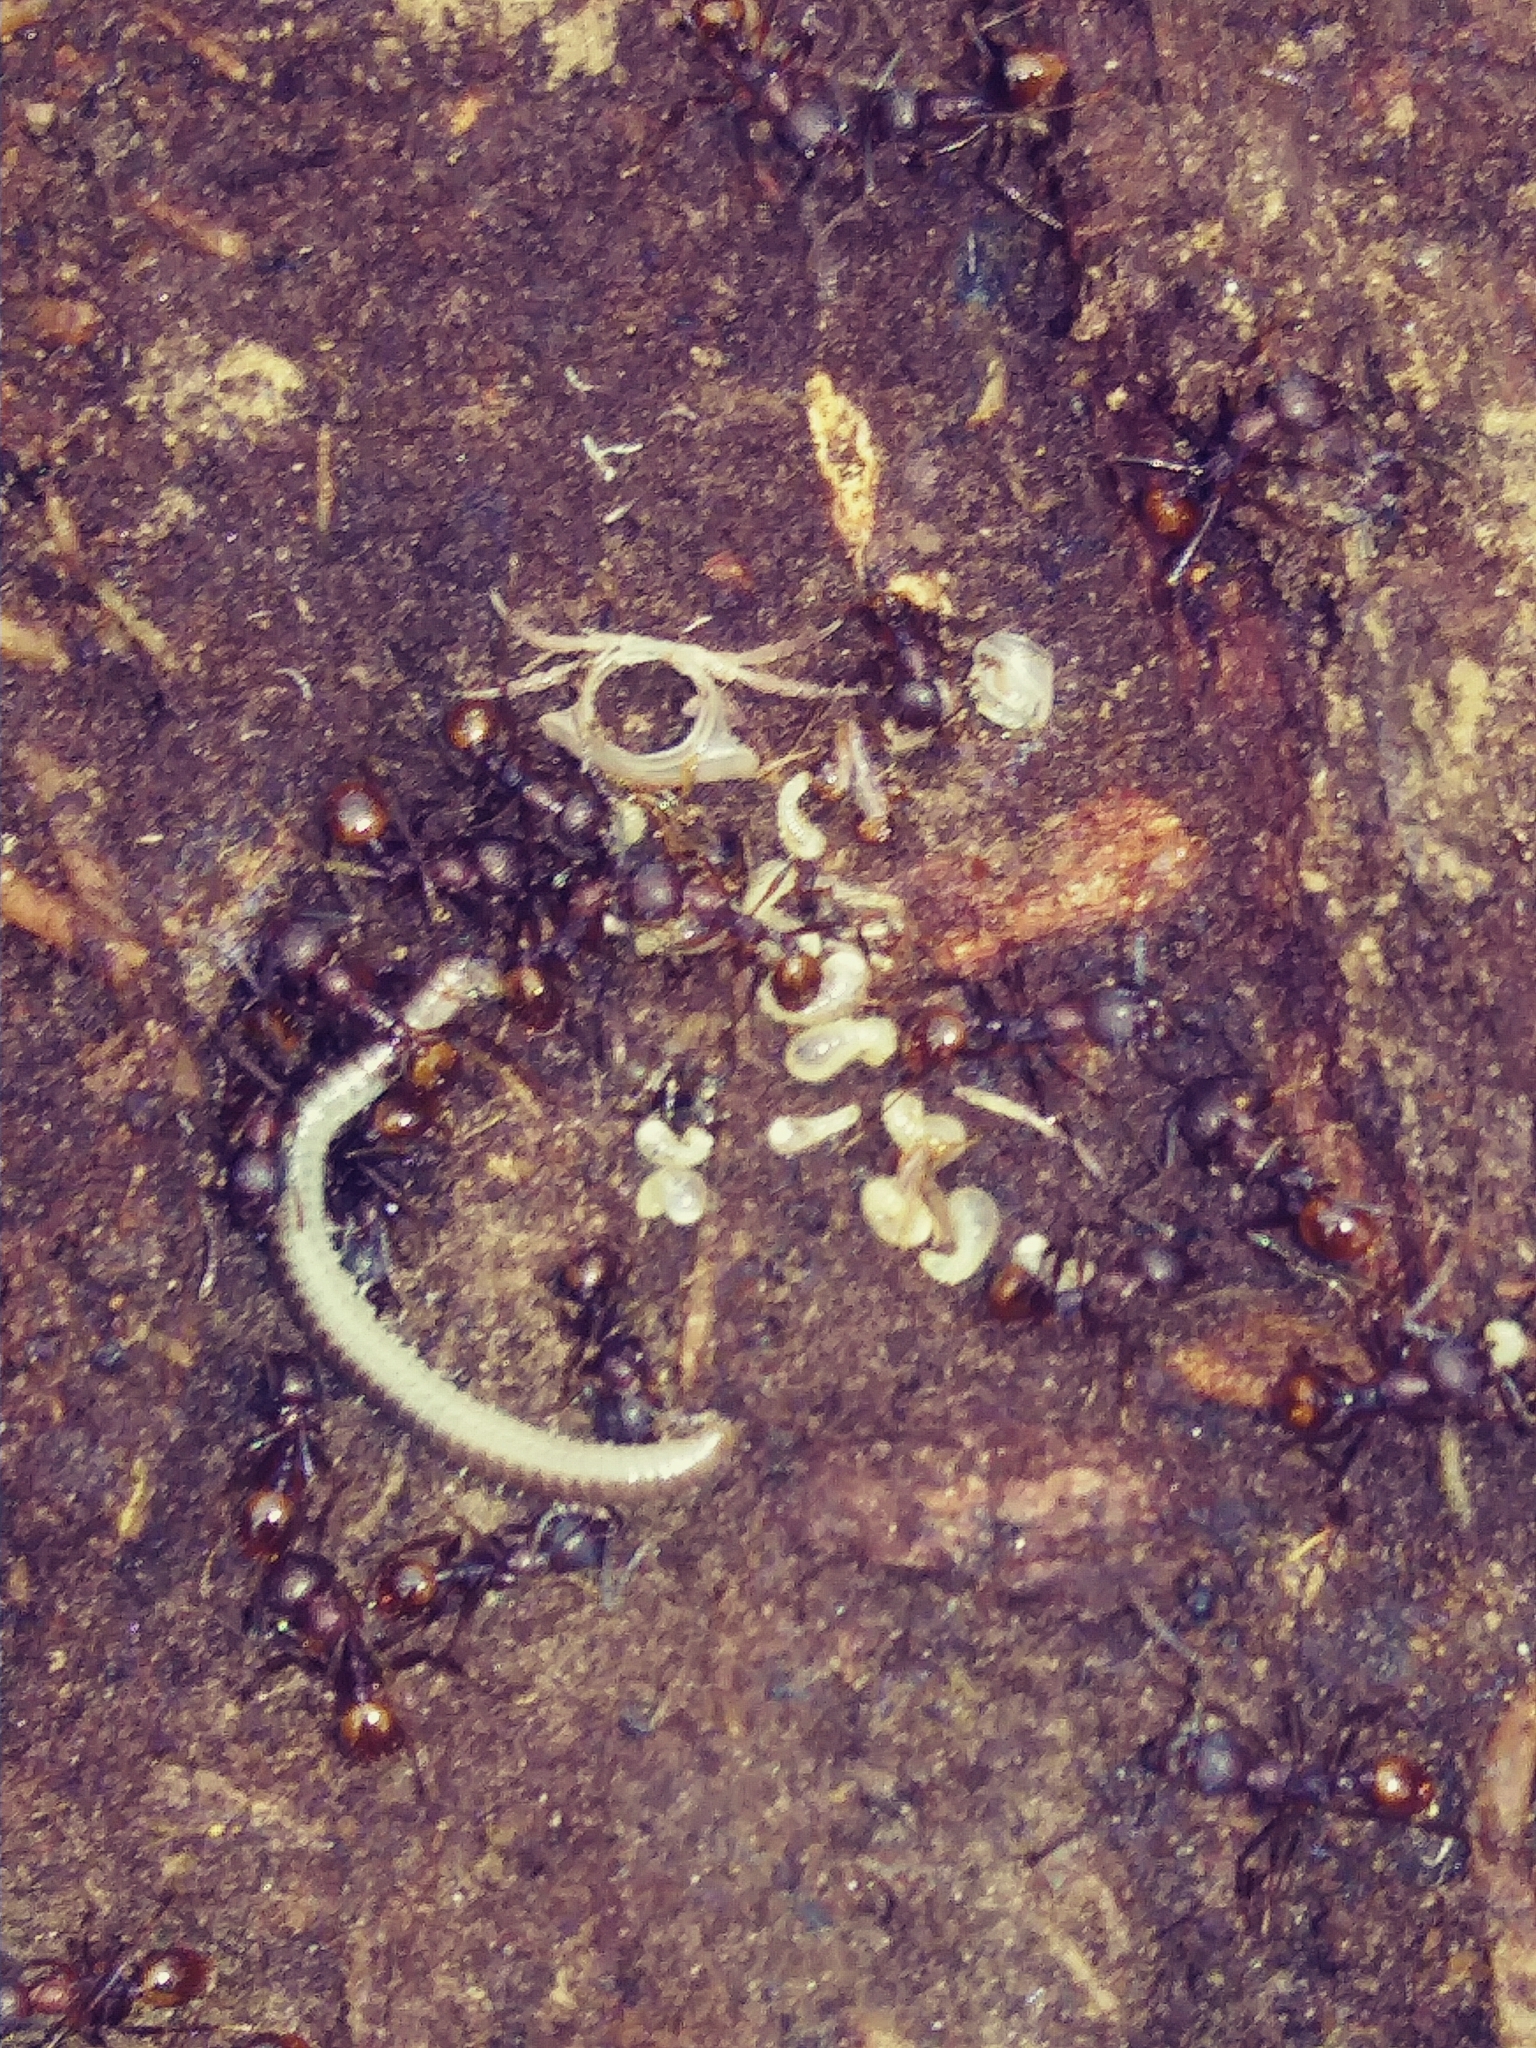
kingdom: Animalia
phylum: Arthropoda
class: Insecta
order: Hymenoptera
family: Formicidae
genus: Aphaenogaster
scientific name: Aphaenogaster fulva
